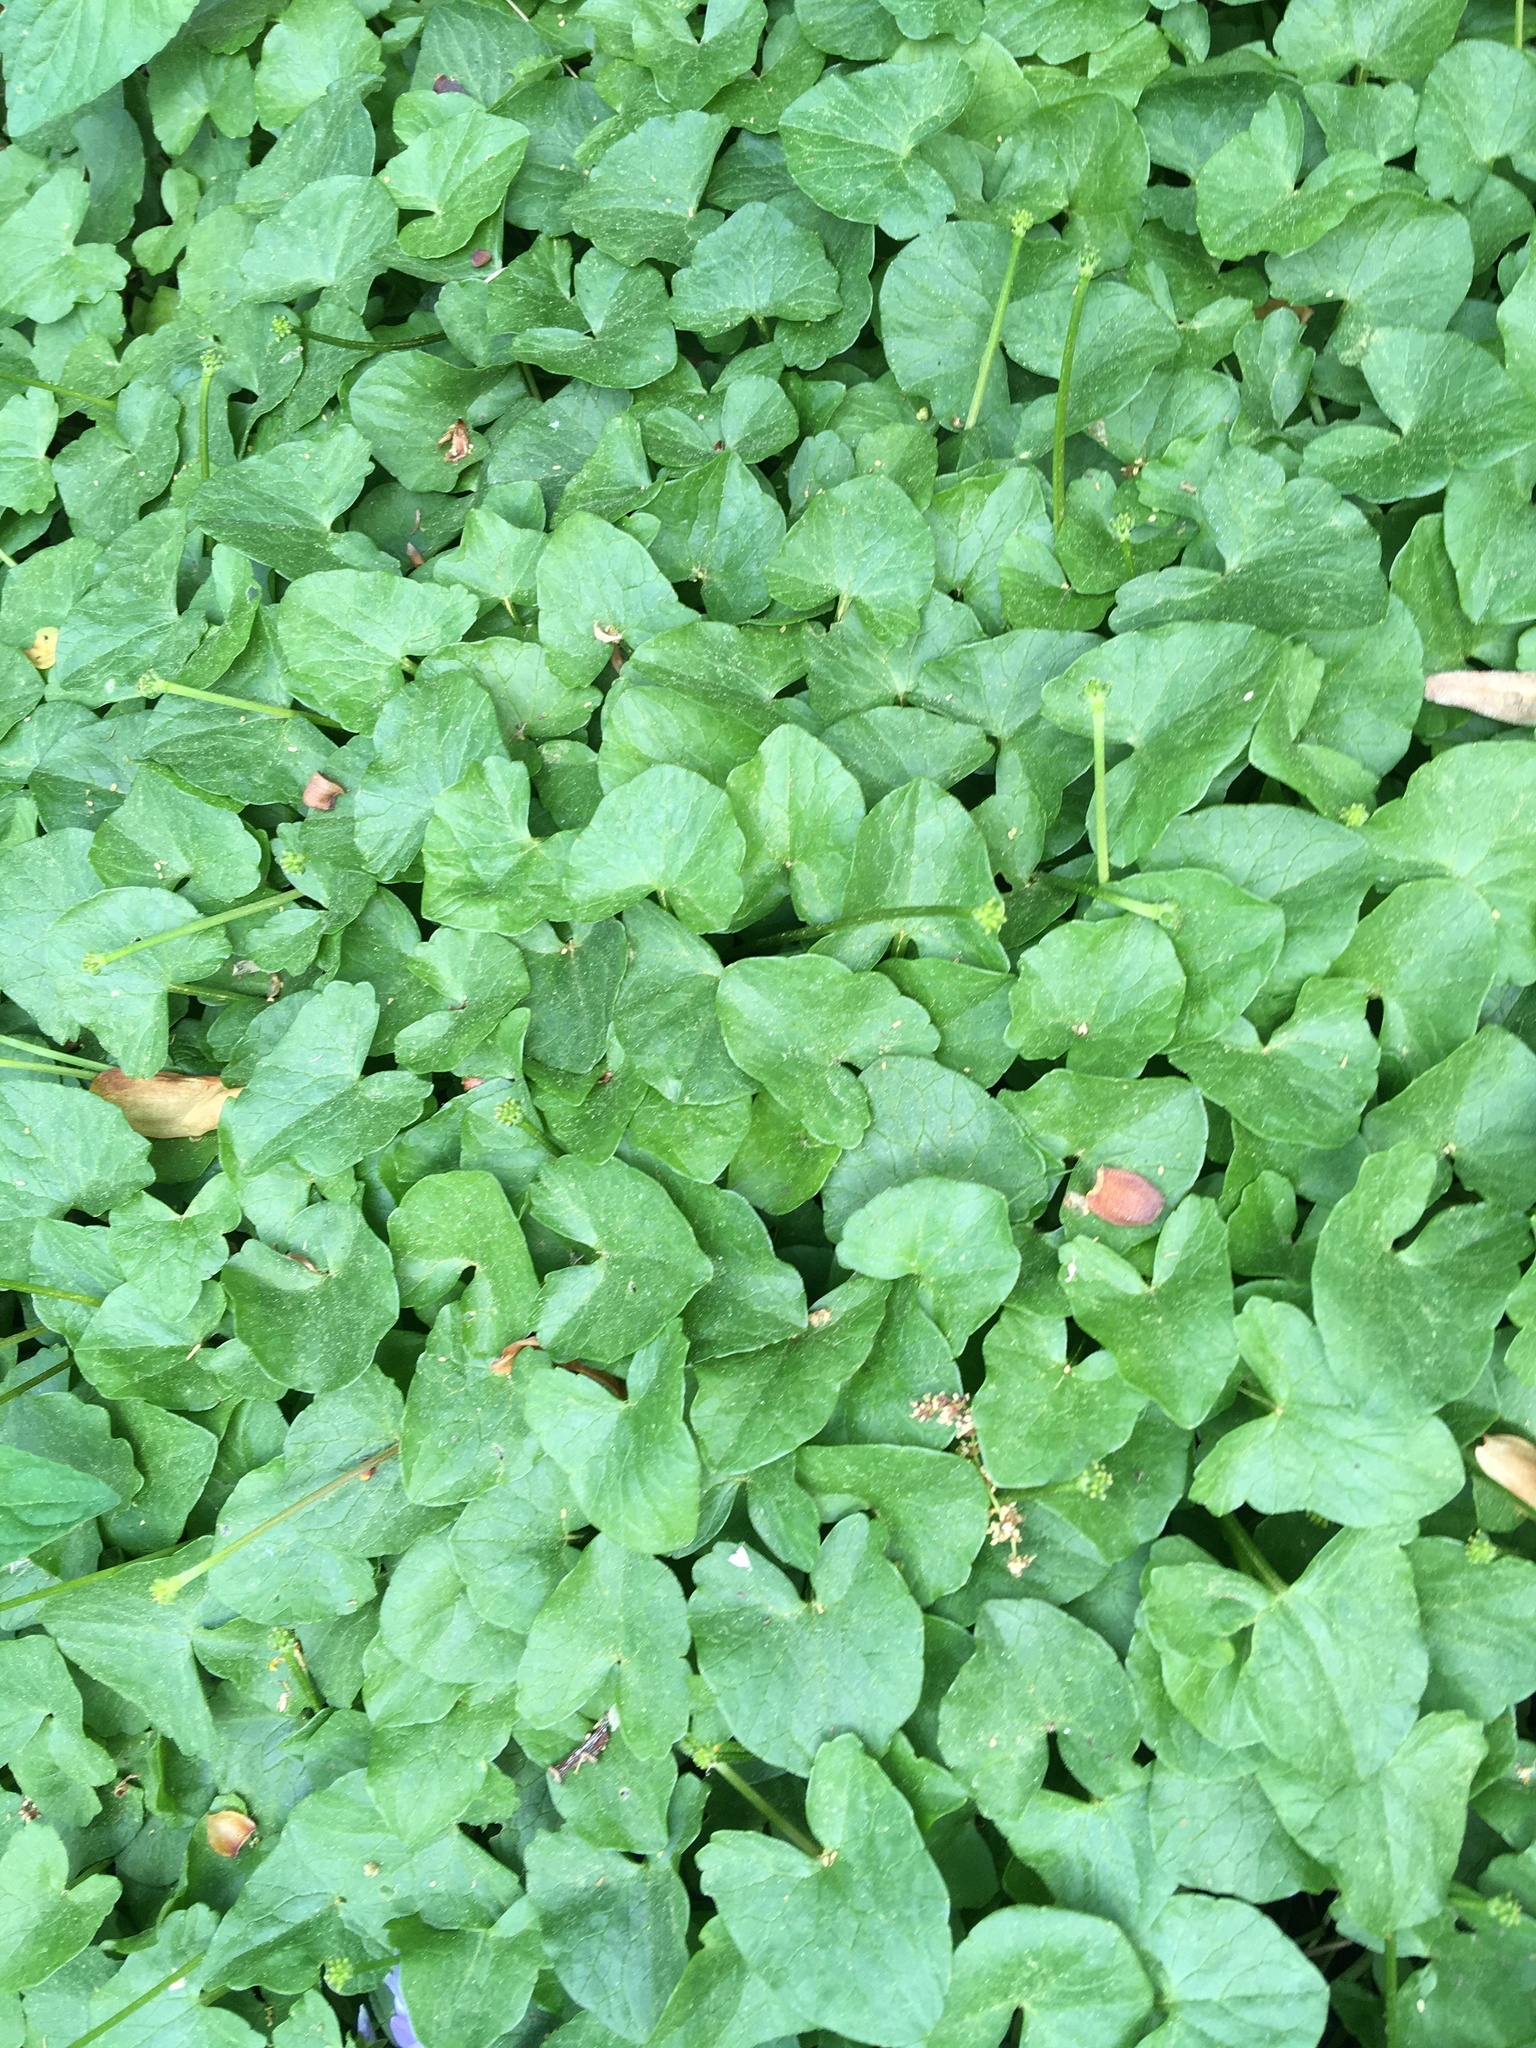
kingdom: Plantae
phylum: Tracheophyta
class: Magnoliopsida
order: Ranunculales
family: Ranunculaceae
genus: Ficaria
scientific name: Ficaria verna
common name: Lesser celandine
